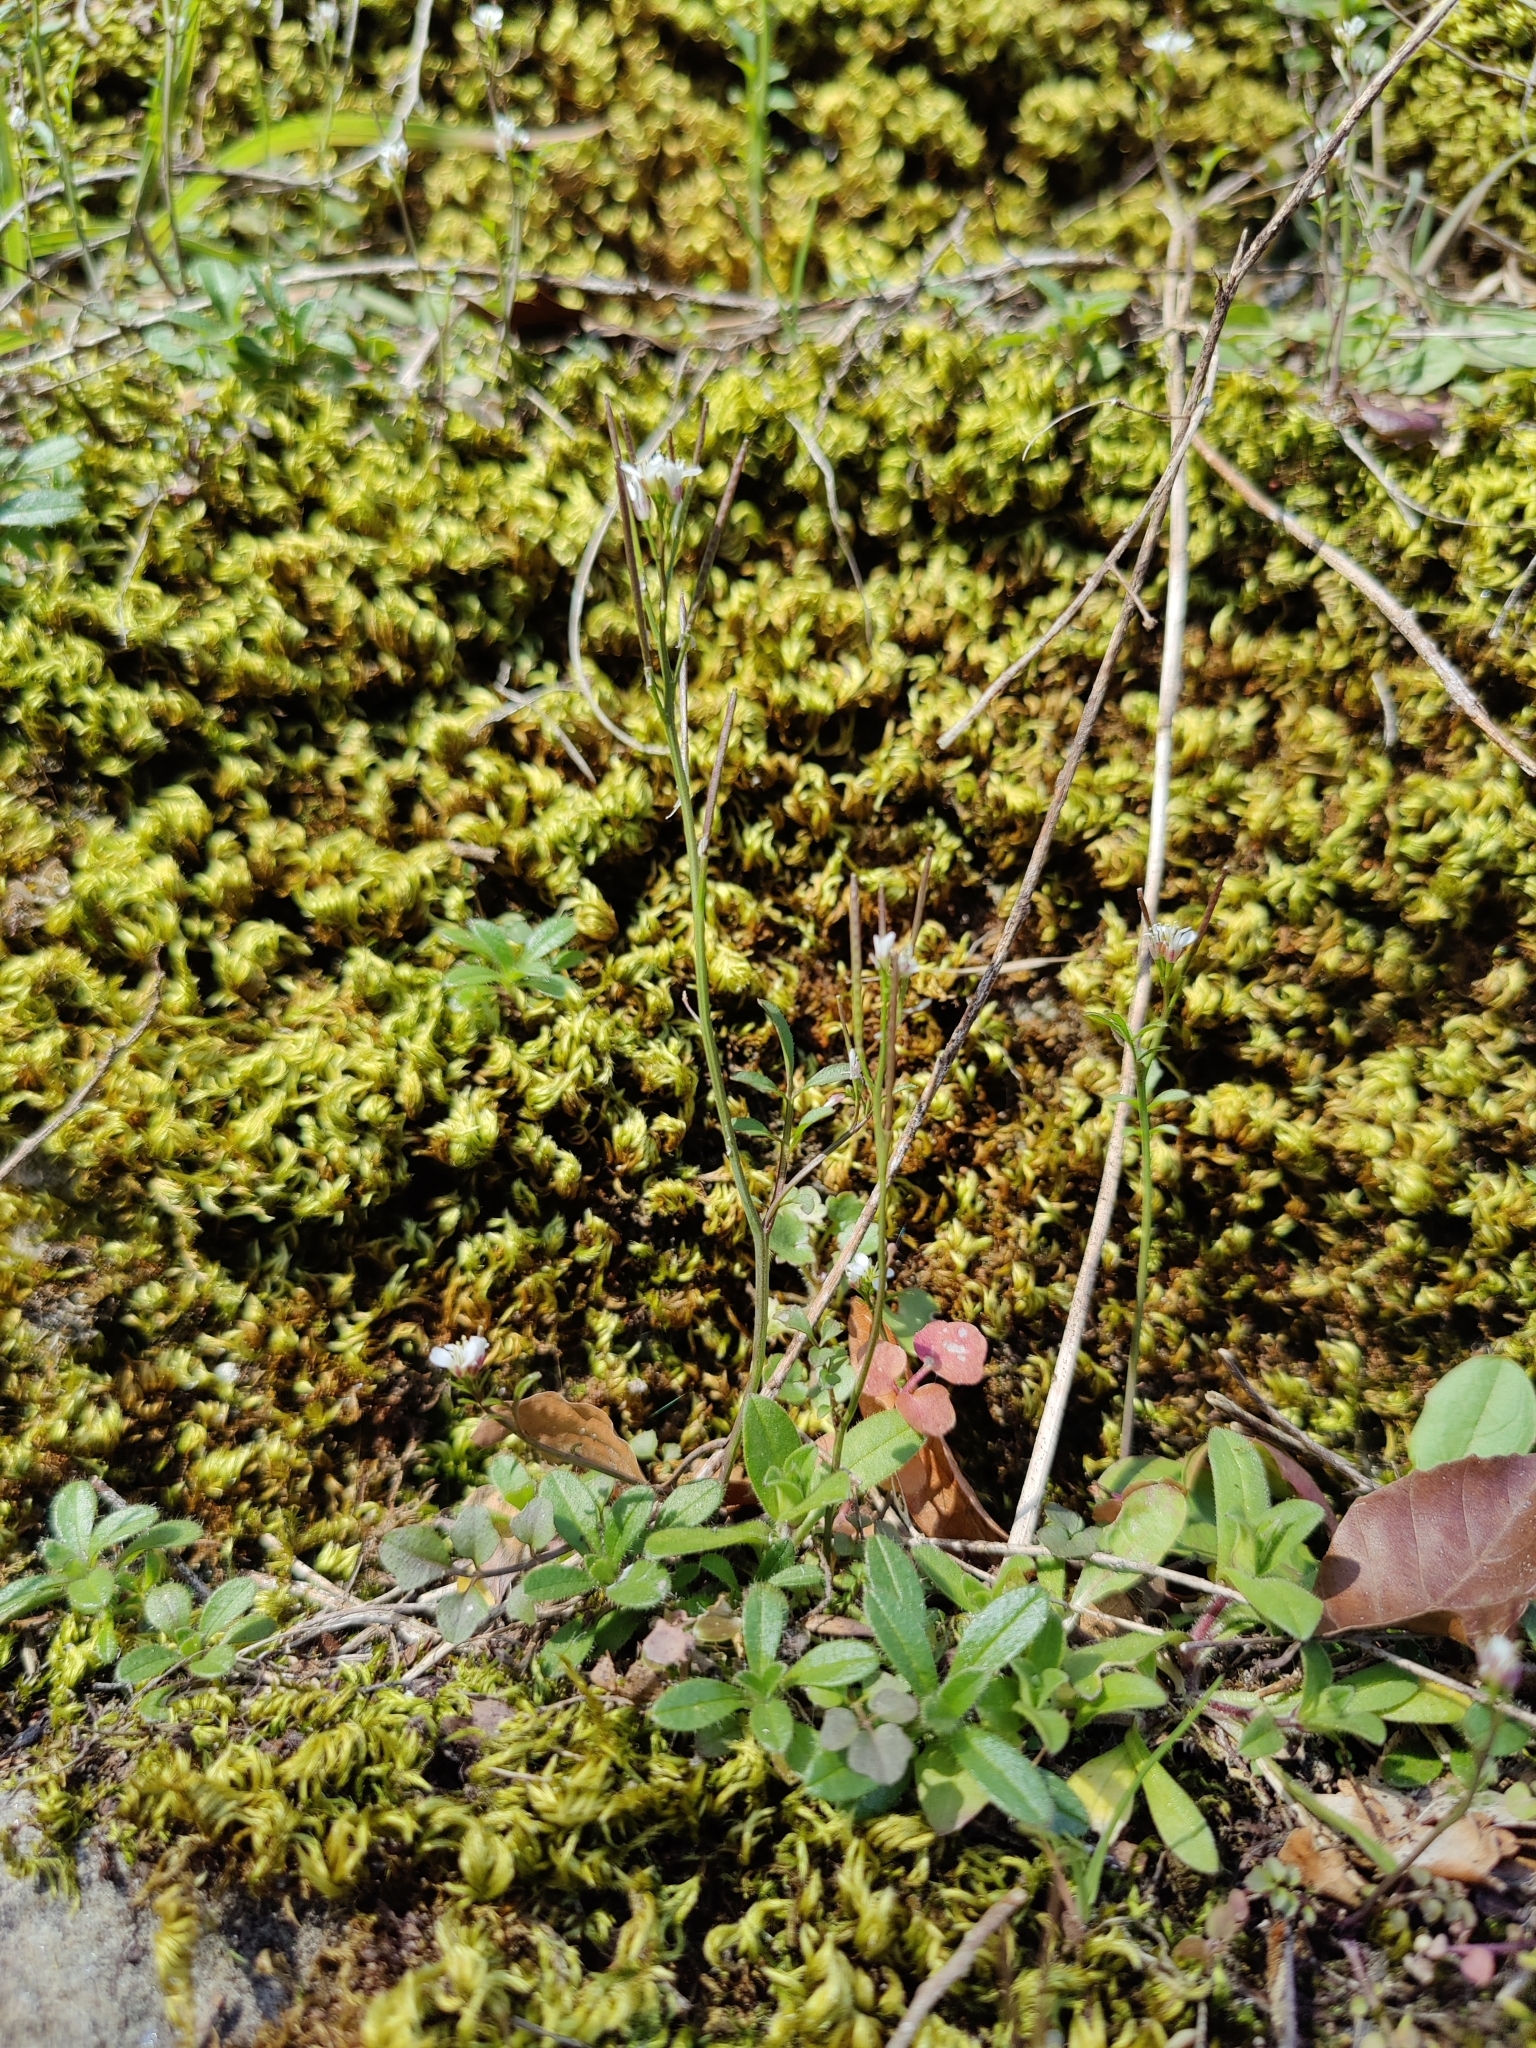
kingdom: Plantae
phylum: Tracheophyta
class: Magnoliopsida
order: Brassicales
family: Brassicaceae
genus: Cardamine
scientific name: Cardamine hirsuta
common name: Hairy bittercress
